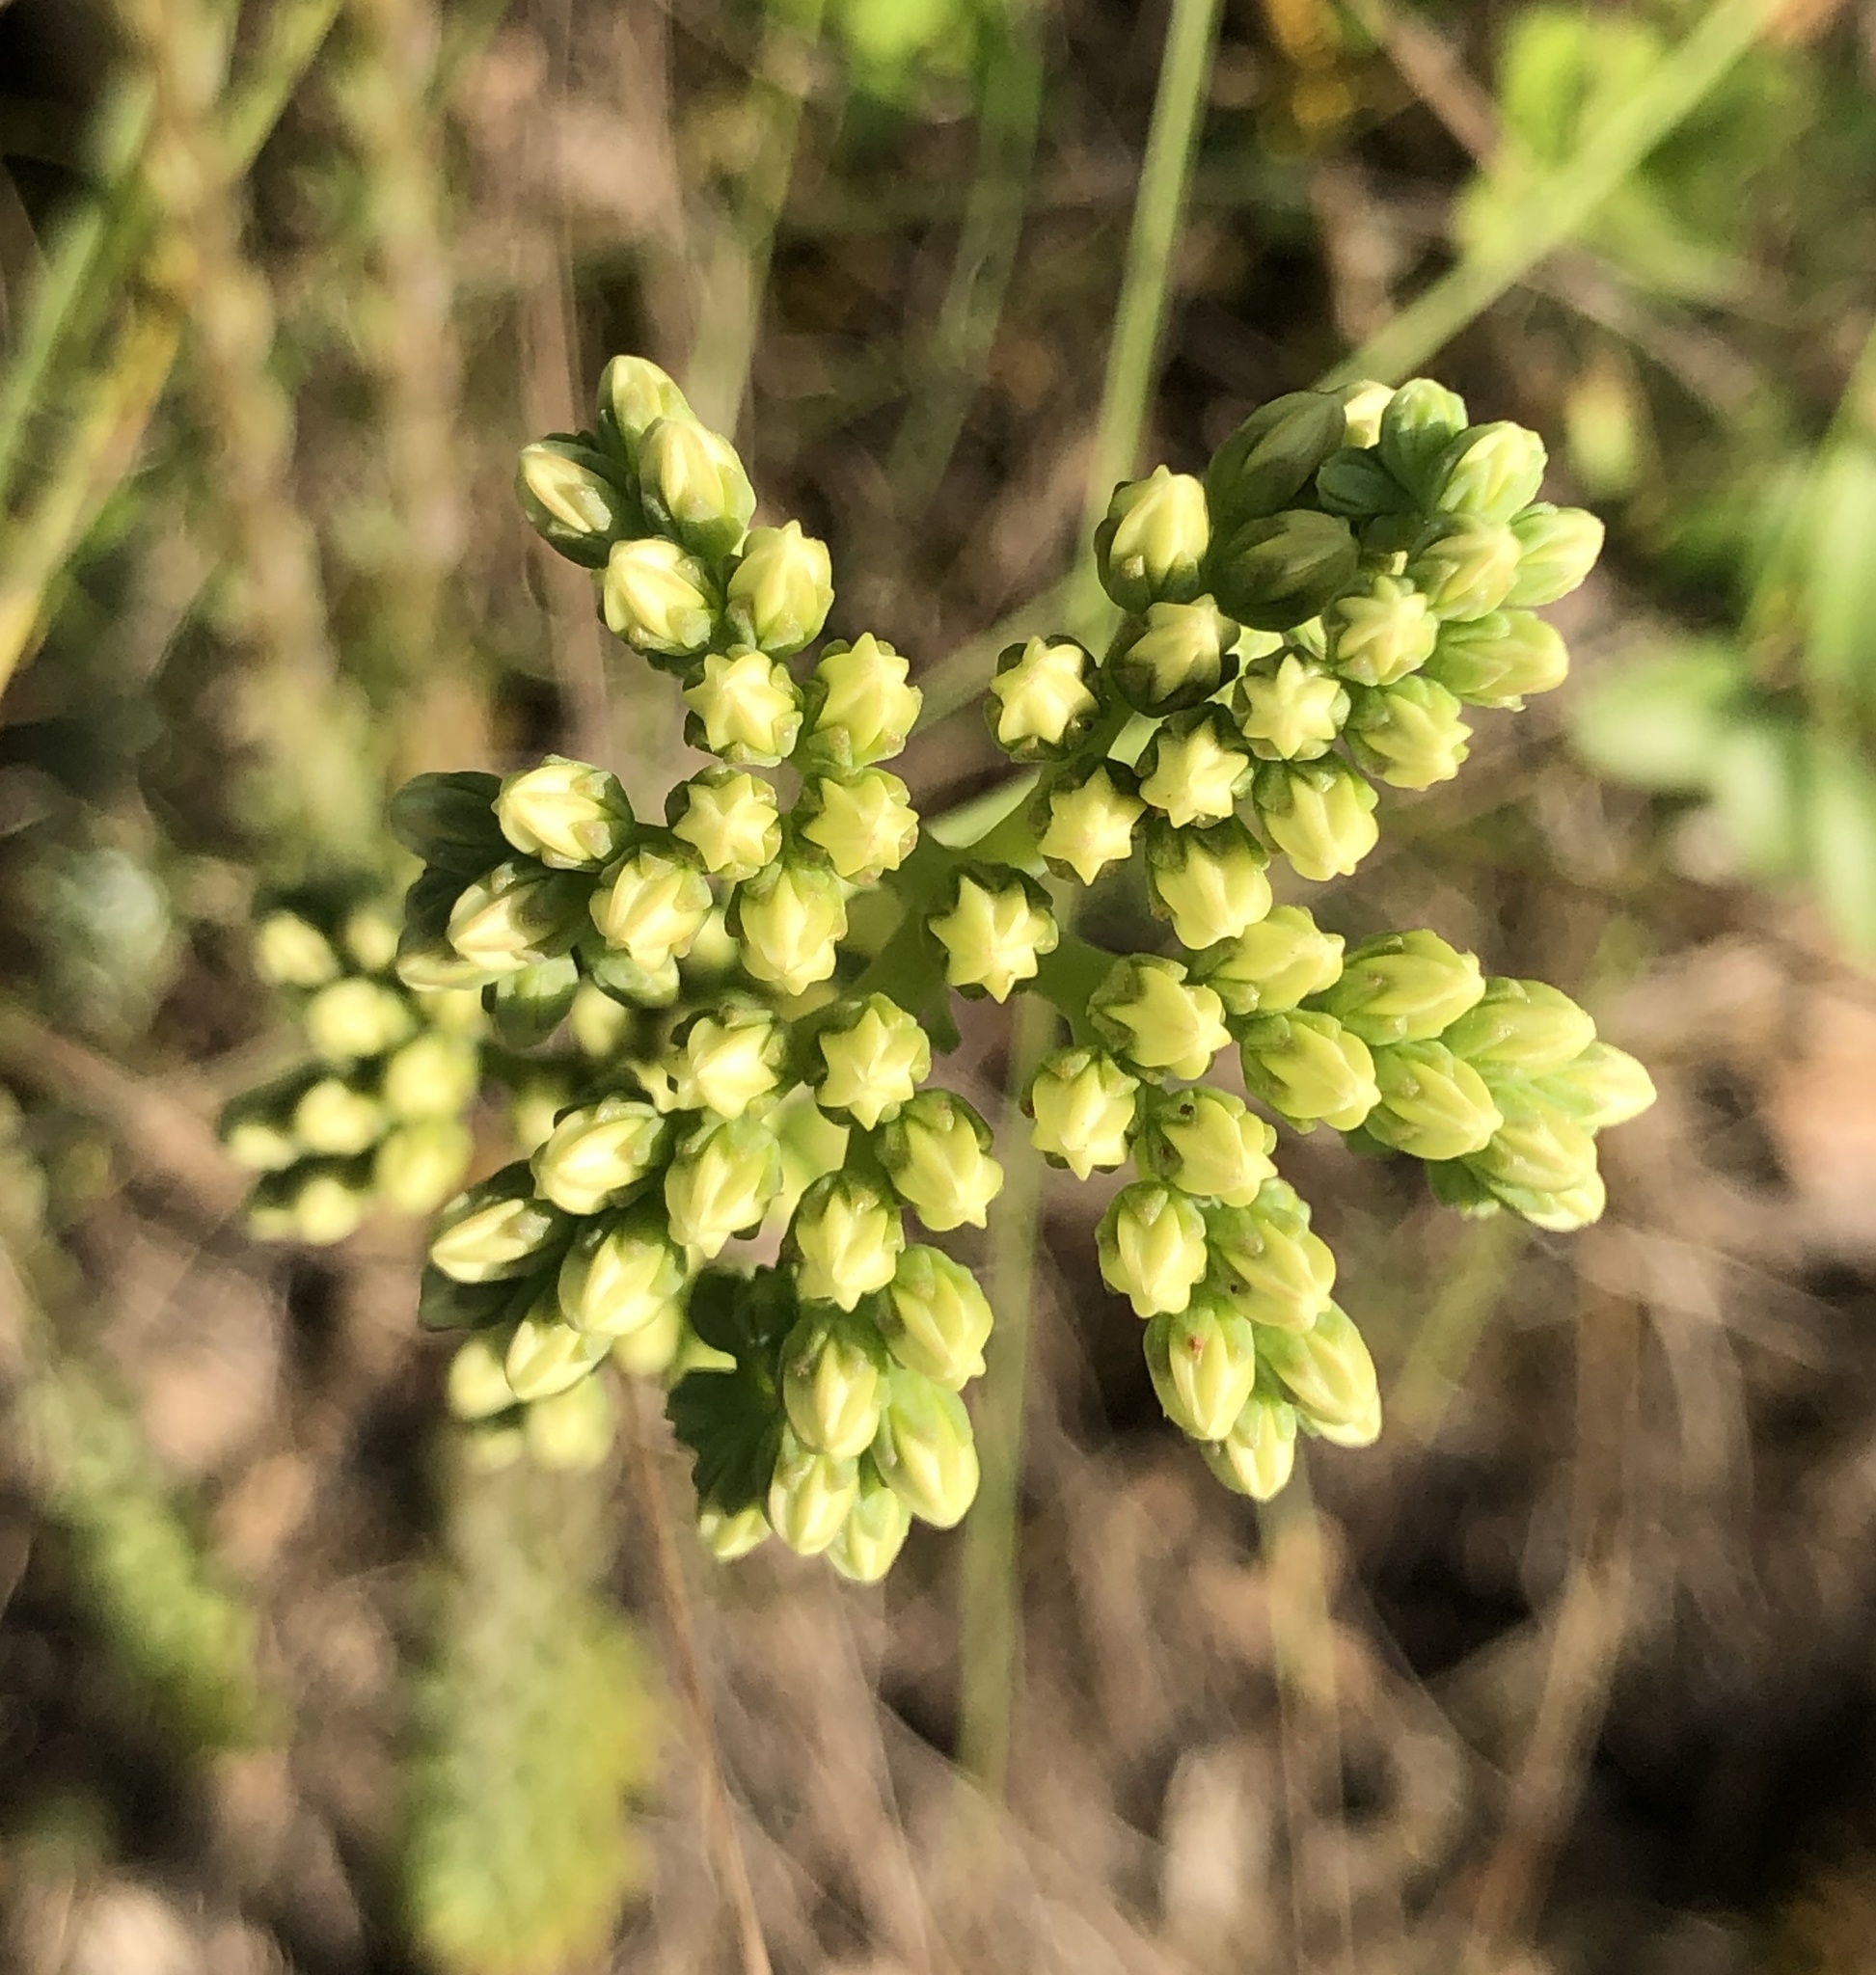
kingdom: Plantae
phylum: Tracheophyta
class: Magnoliopsida
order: Saxifragales
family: Crassulaceae
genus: Petrosedum
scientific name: Petrosedum sediforme
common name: Pale stonecrop
